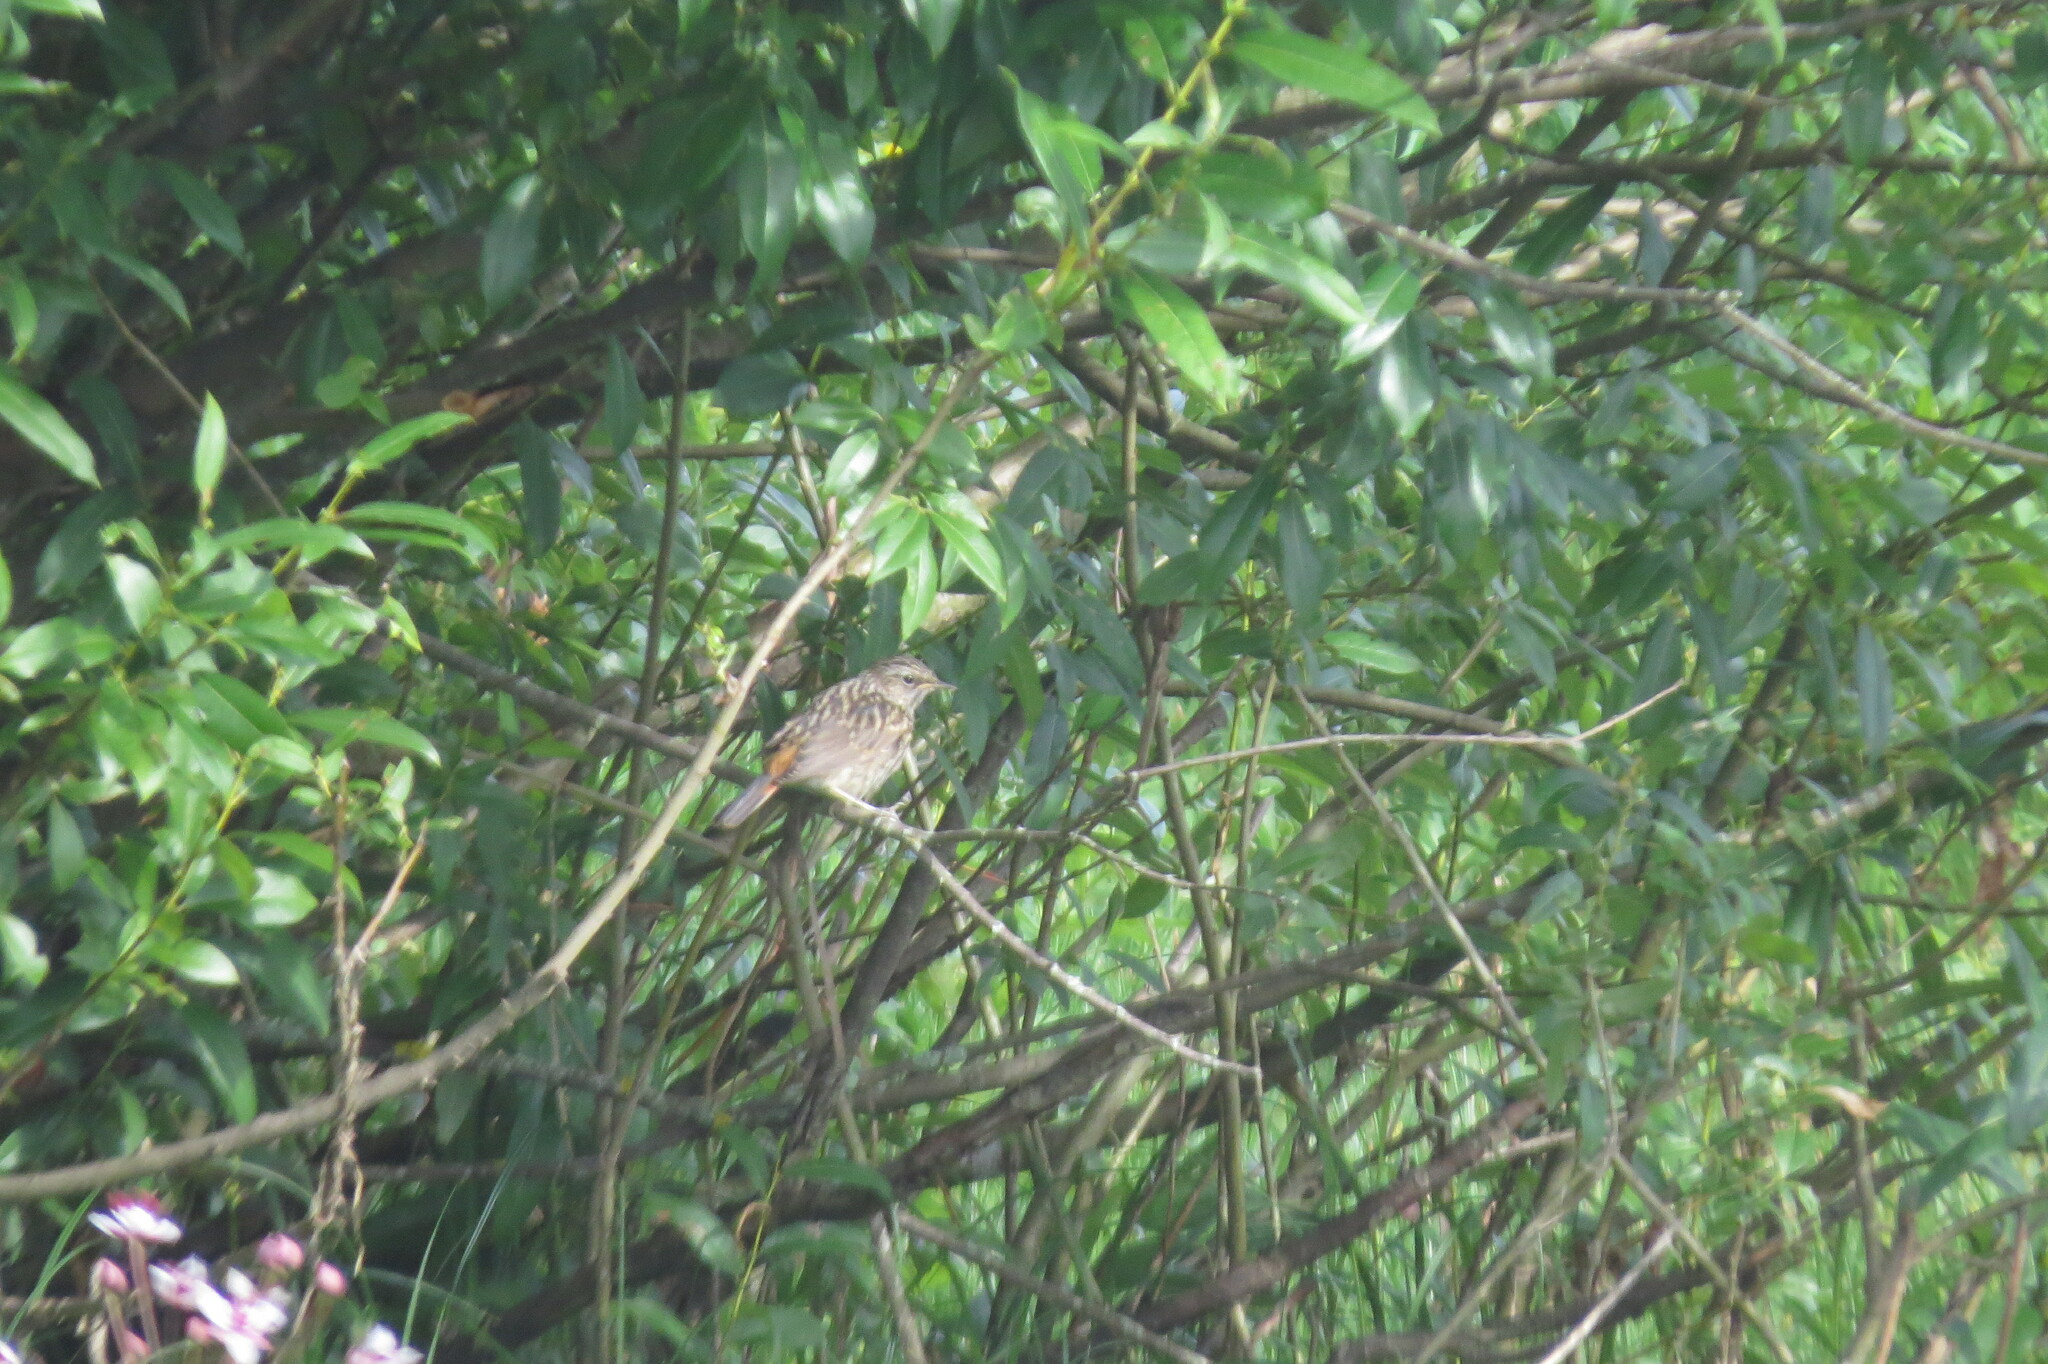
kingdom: Animalia
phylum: Chordata
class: Aves
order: Passeriformes
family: Muscicapidae
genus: Luscinia
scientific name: Luscinia svecica
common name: Bluethroat
